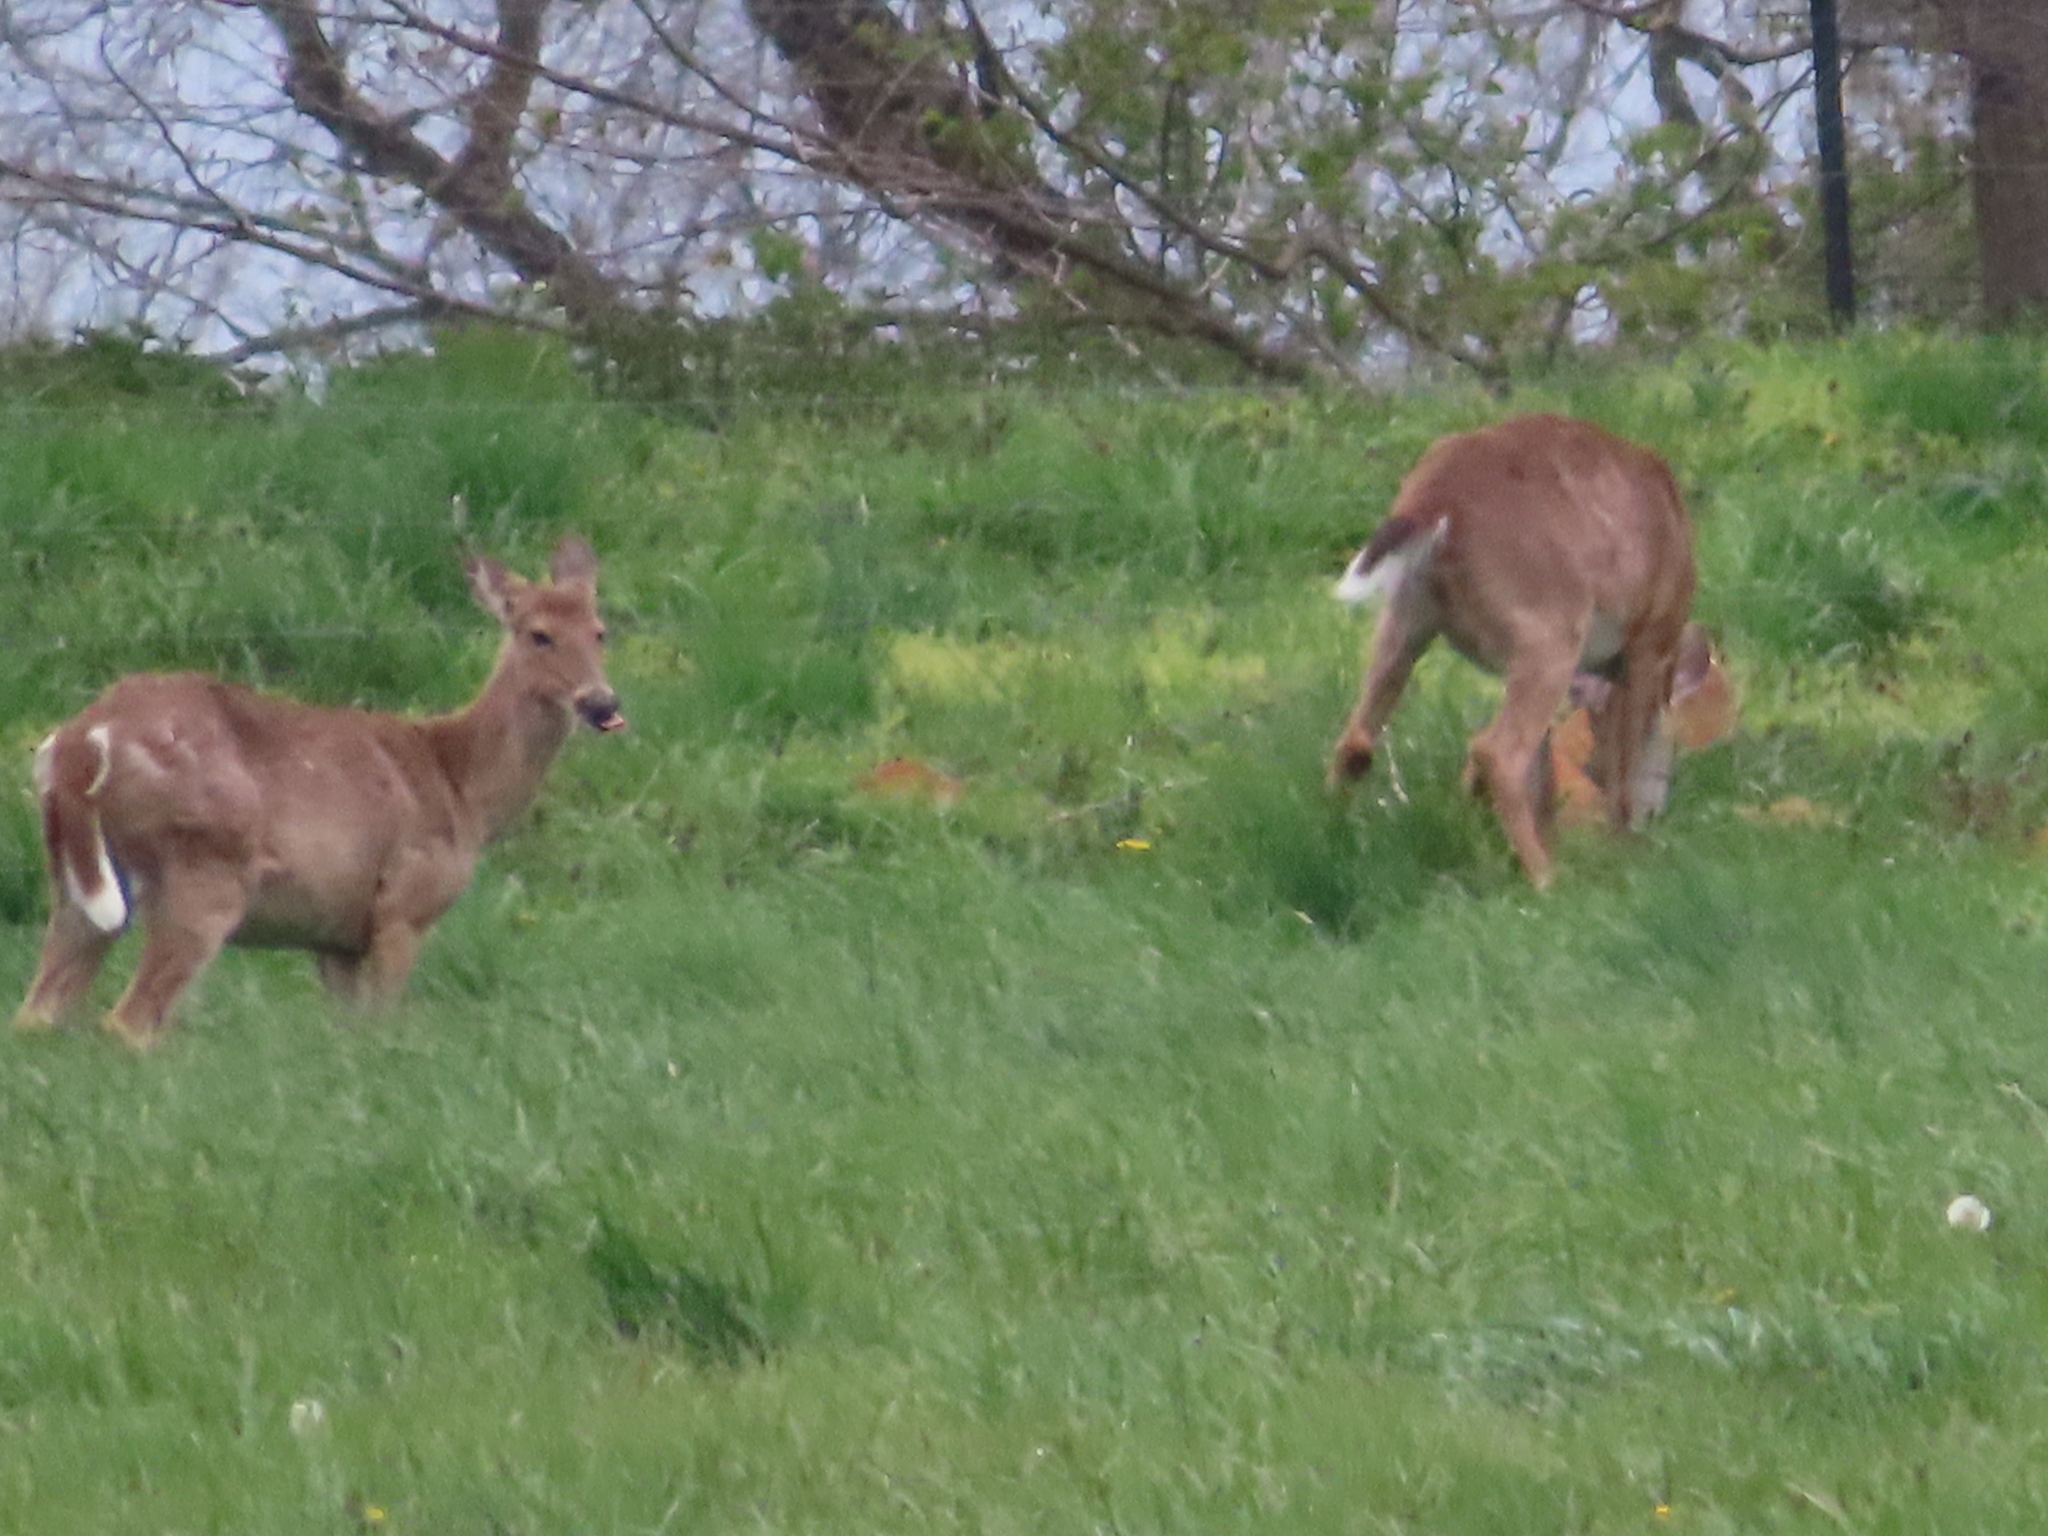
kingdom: Animalia
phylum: Chordata
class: Mammalia
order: Artiodactyla
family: Cervidae
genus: Odocoileus
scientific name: Odocoileus virginianus
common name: White-tailed deer
